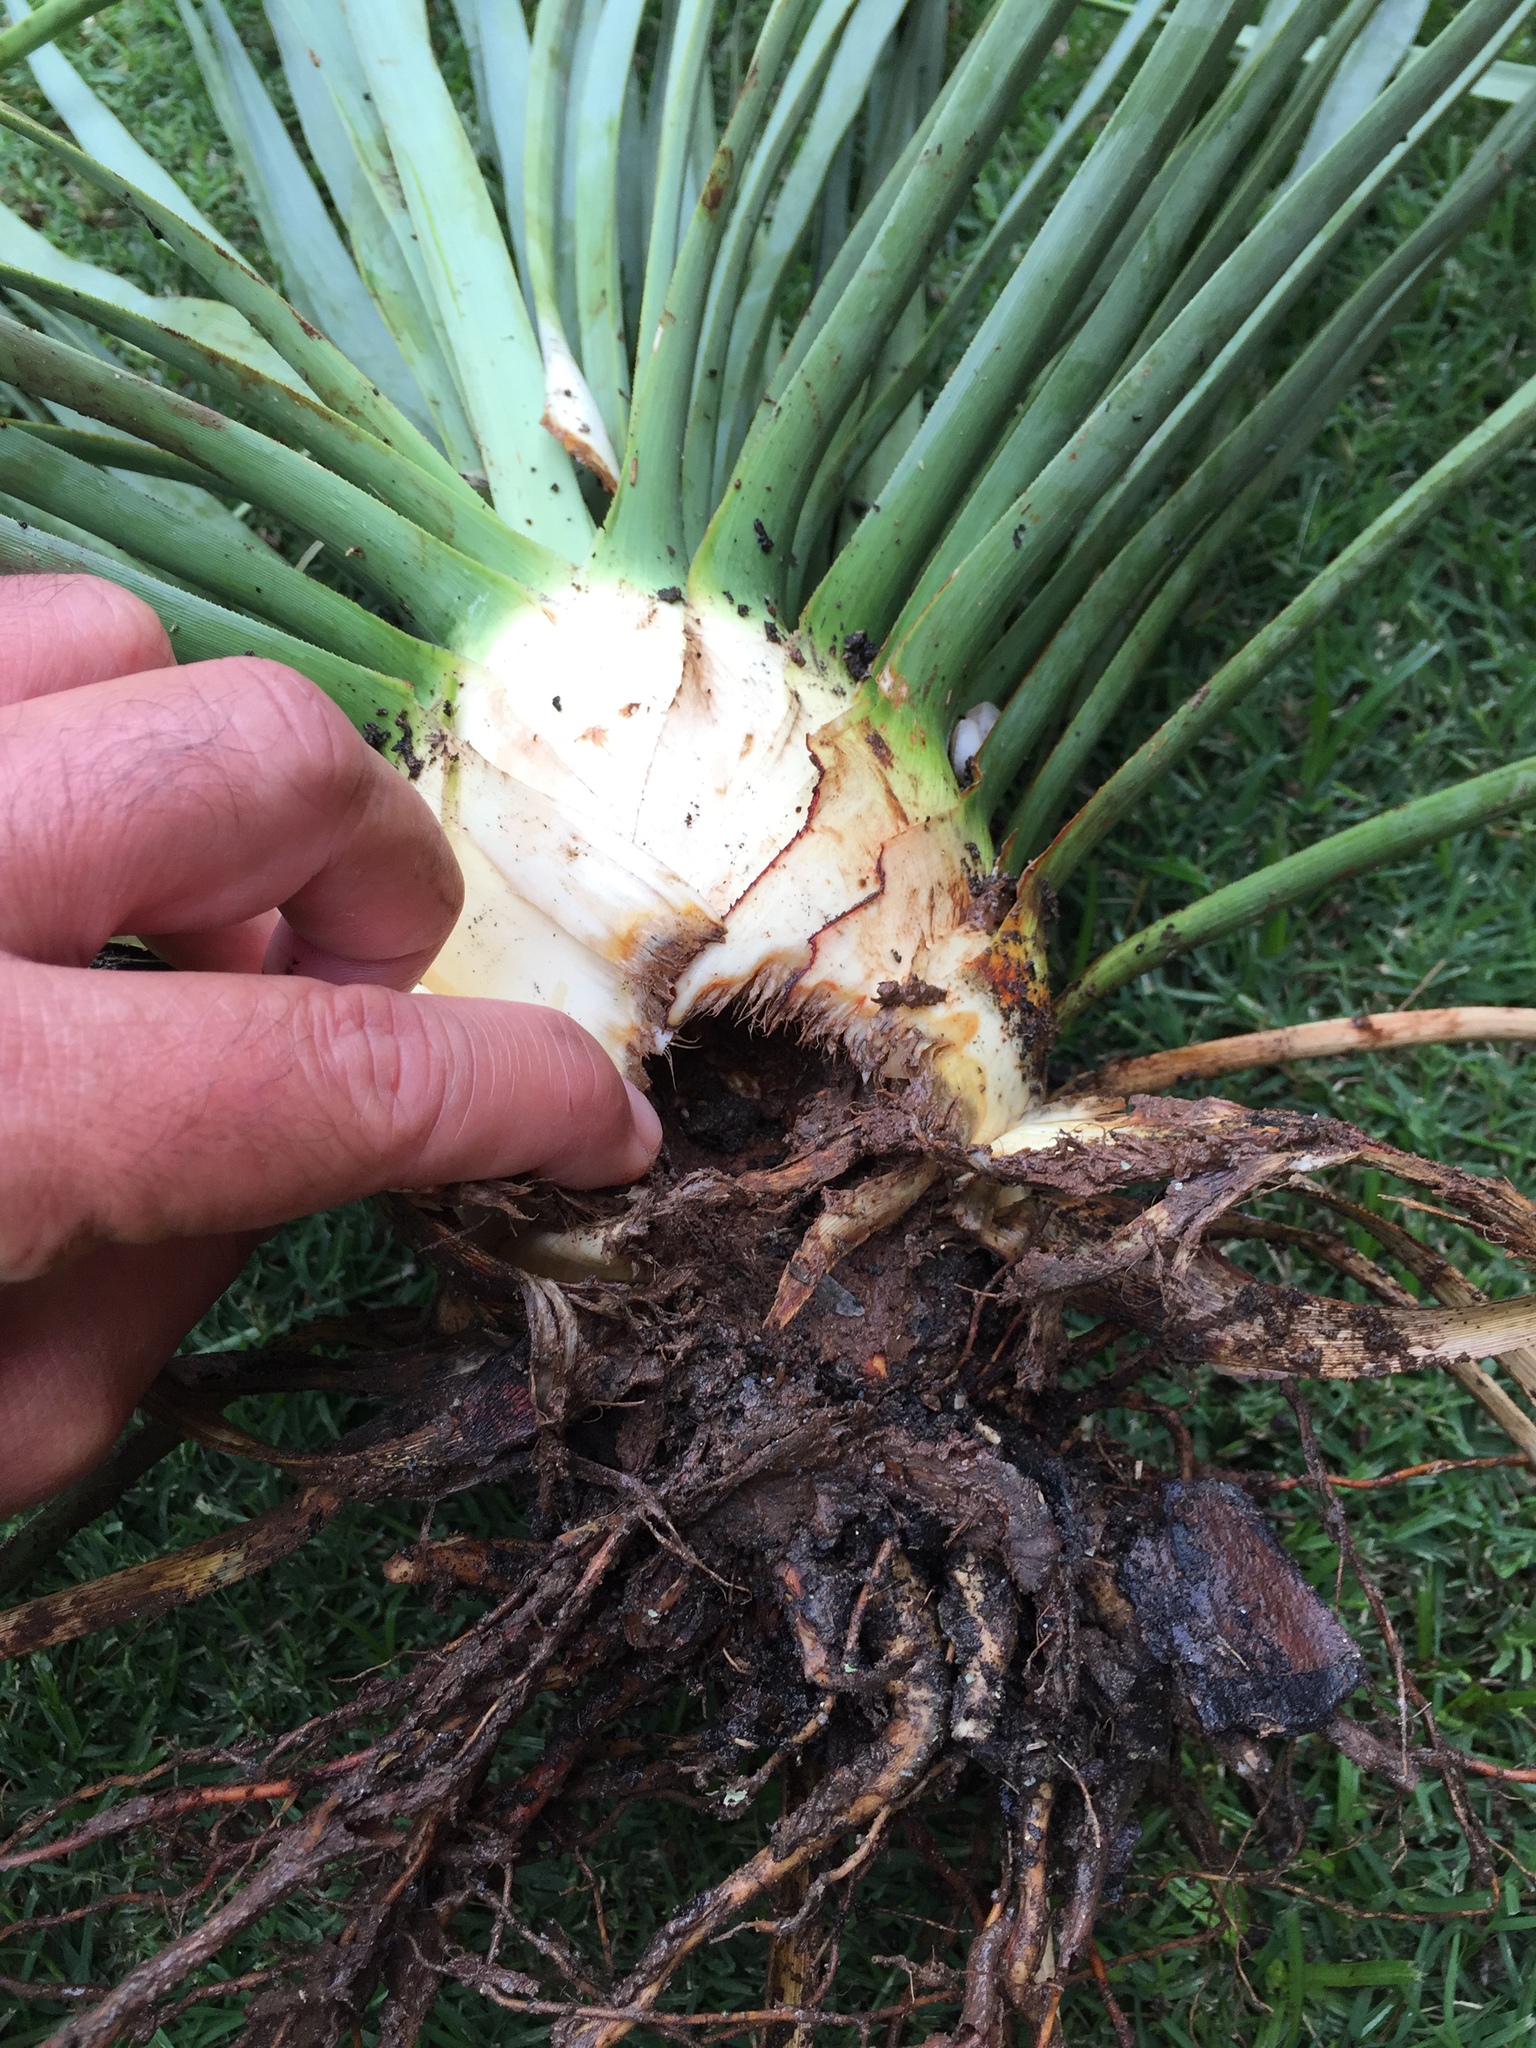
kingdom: Animalia
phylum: Arthropoda
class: Insecta
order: Coleoptera
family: Scarabaeidae
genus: Strategus
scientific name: Strategus aloeus
